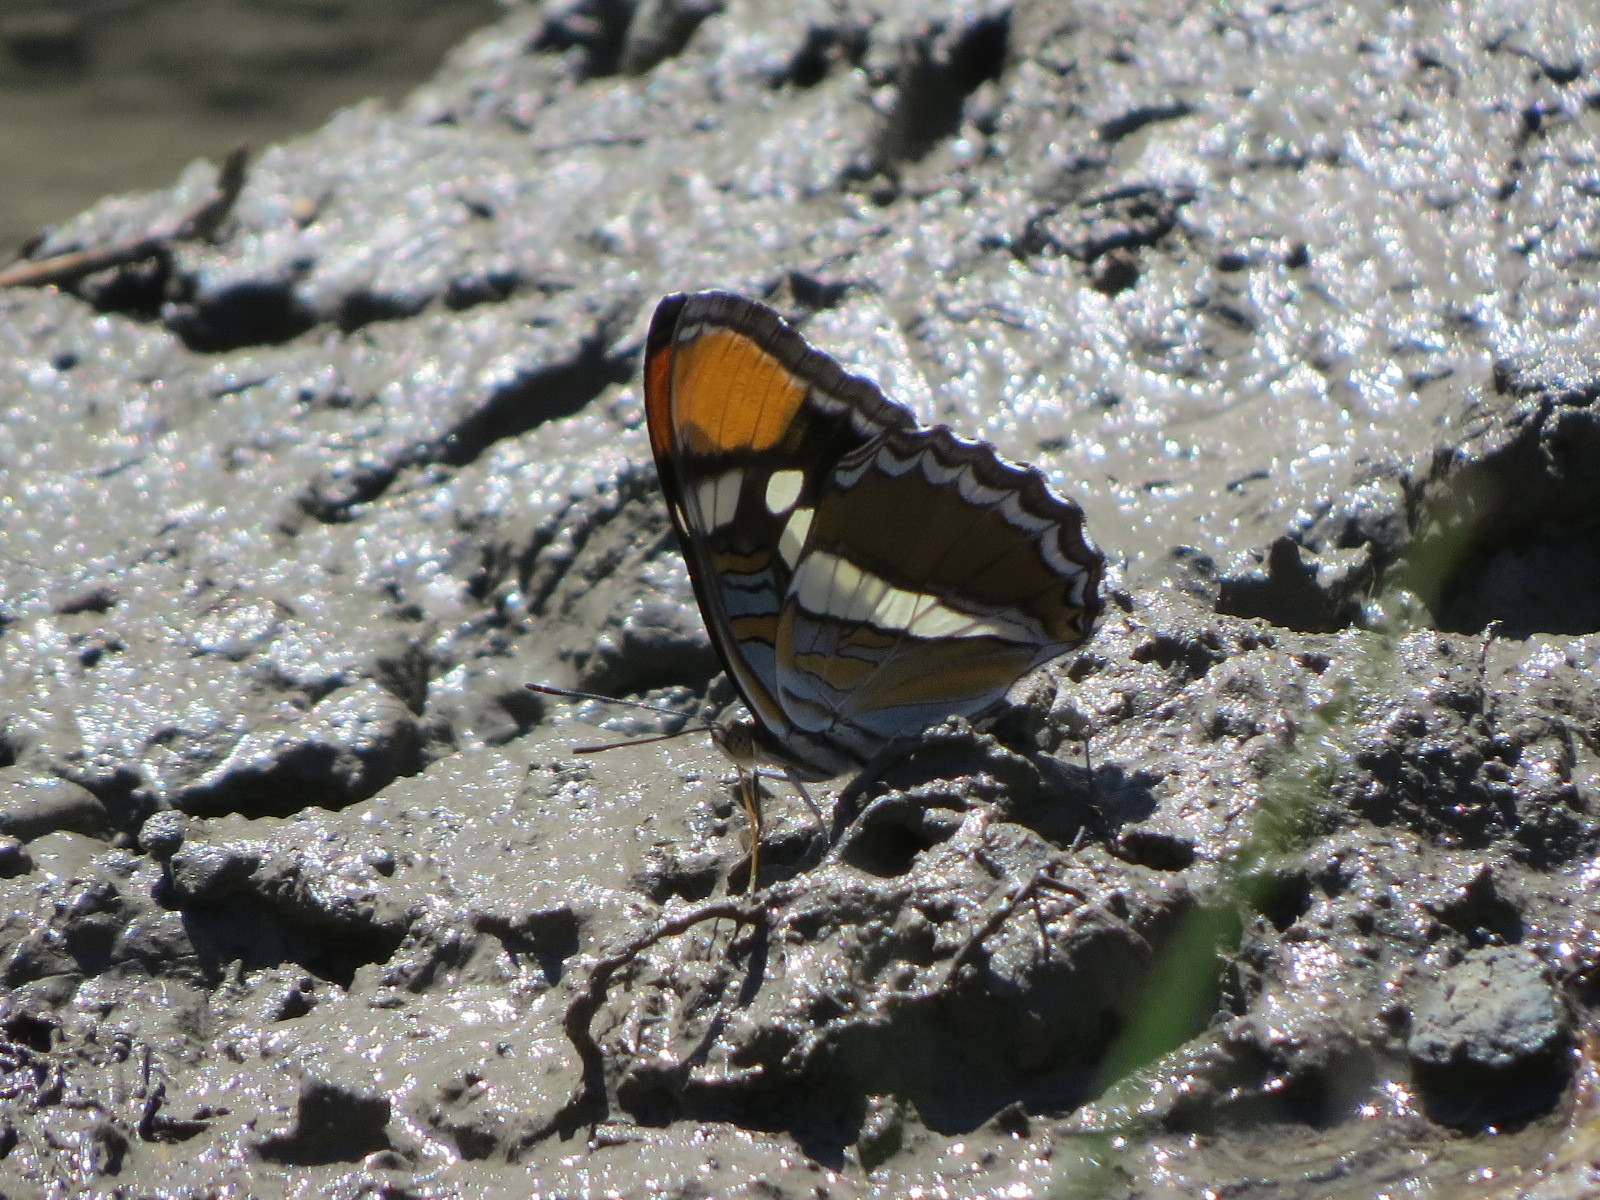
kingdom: Animalia
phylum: Arthropoda
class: Insecta
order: Lepidoptera
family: Nymphalidae
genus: Limenitis
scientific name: Limenitis bredowii
